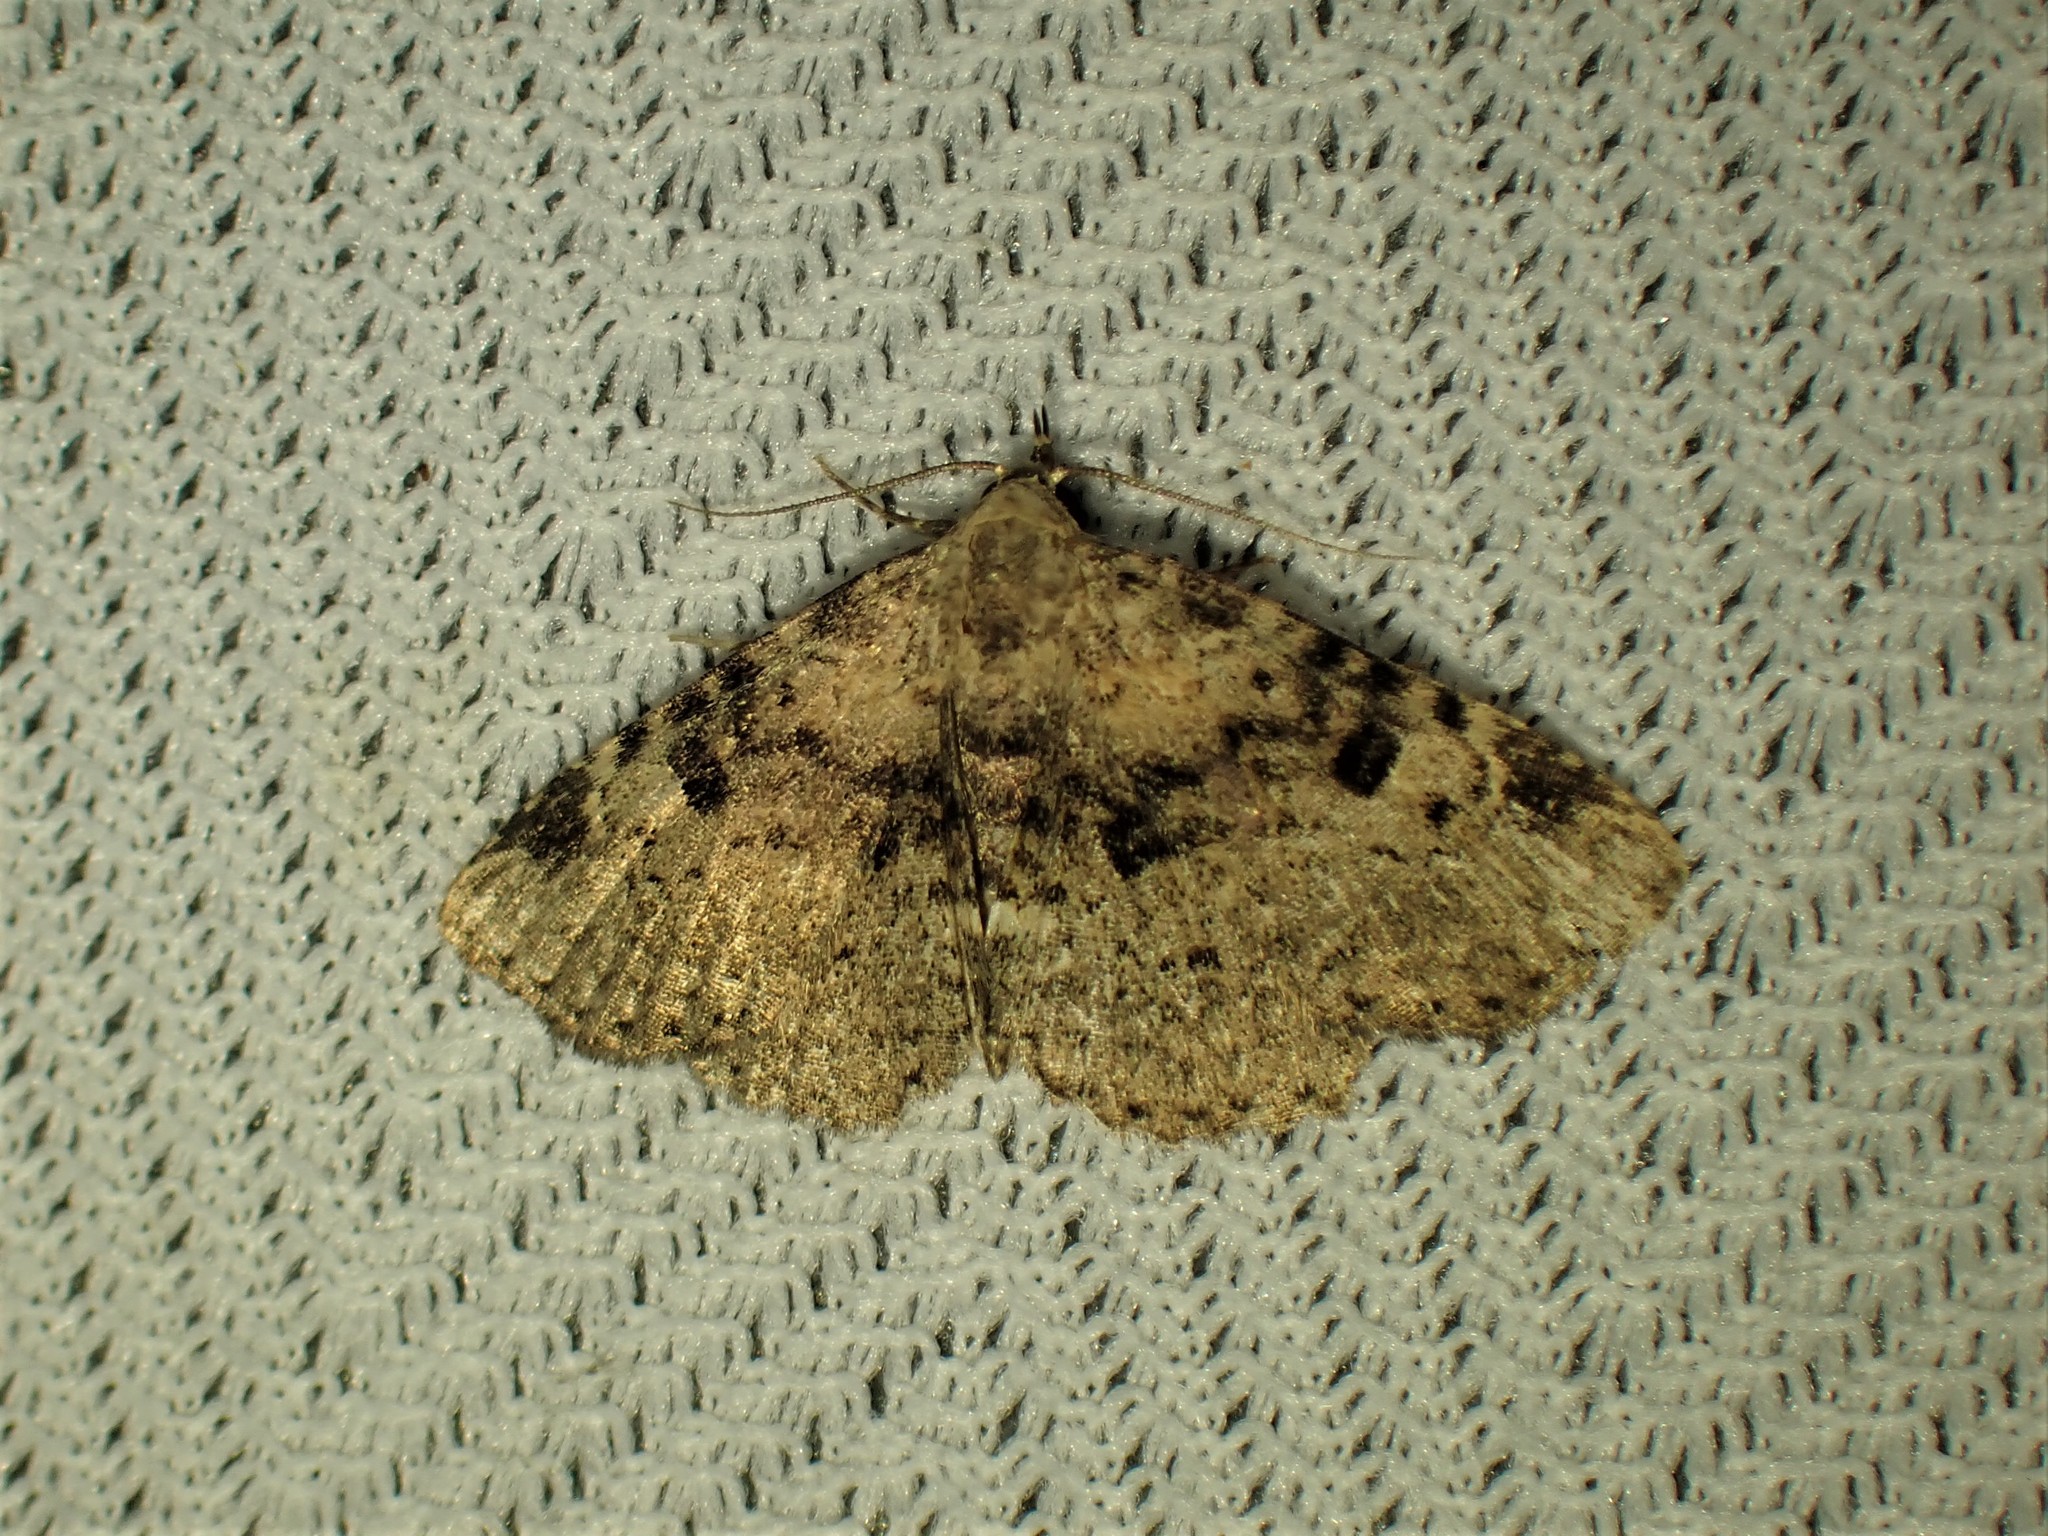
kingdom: Animalia
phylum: Arthropoda
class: Insecta
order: Lepidoptera
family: Erebidae
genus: Metalectra
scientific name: Metalectra quadrisignata
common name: Four-spotted fungus moth
